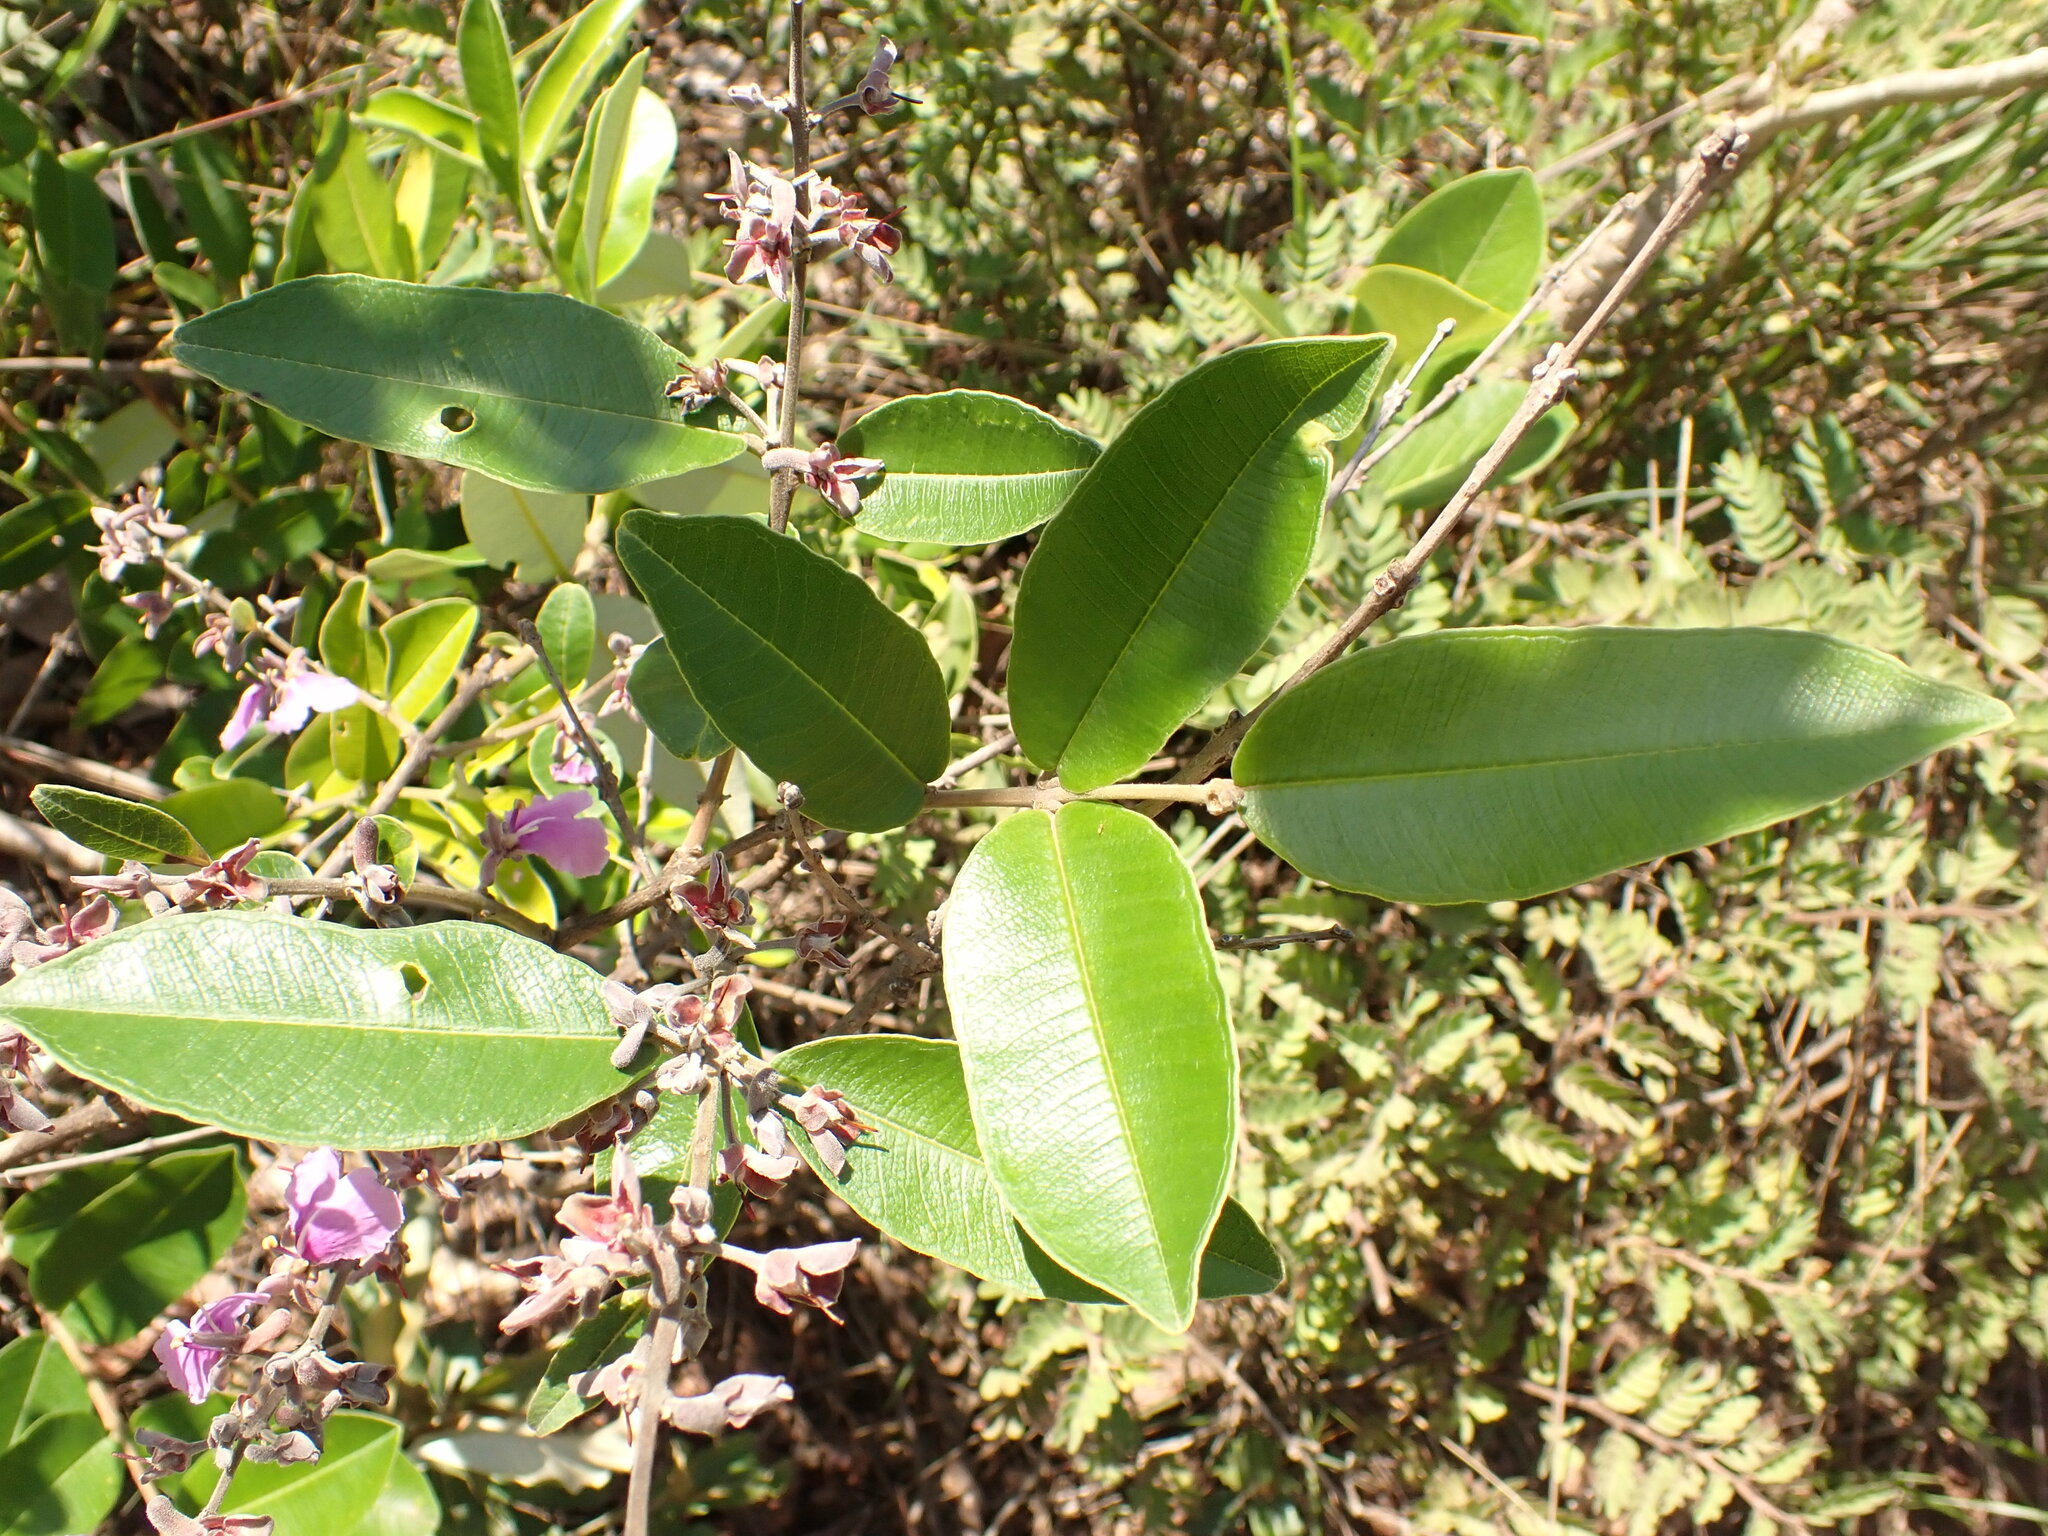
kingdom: Plantae
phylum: Tracheophyta
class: Magnoliopsida
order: Myrtales
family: Vochysiaceae
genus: Qualea
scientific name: Qualea parviflora
